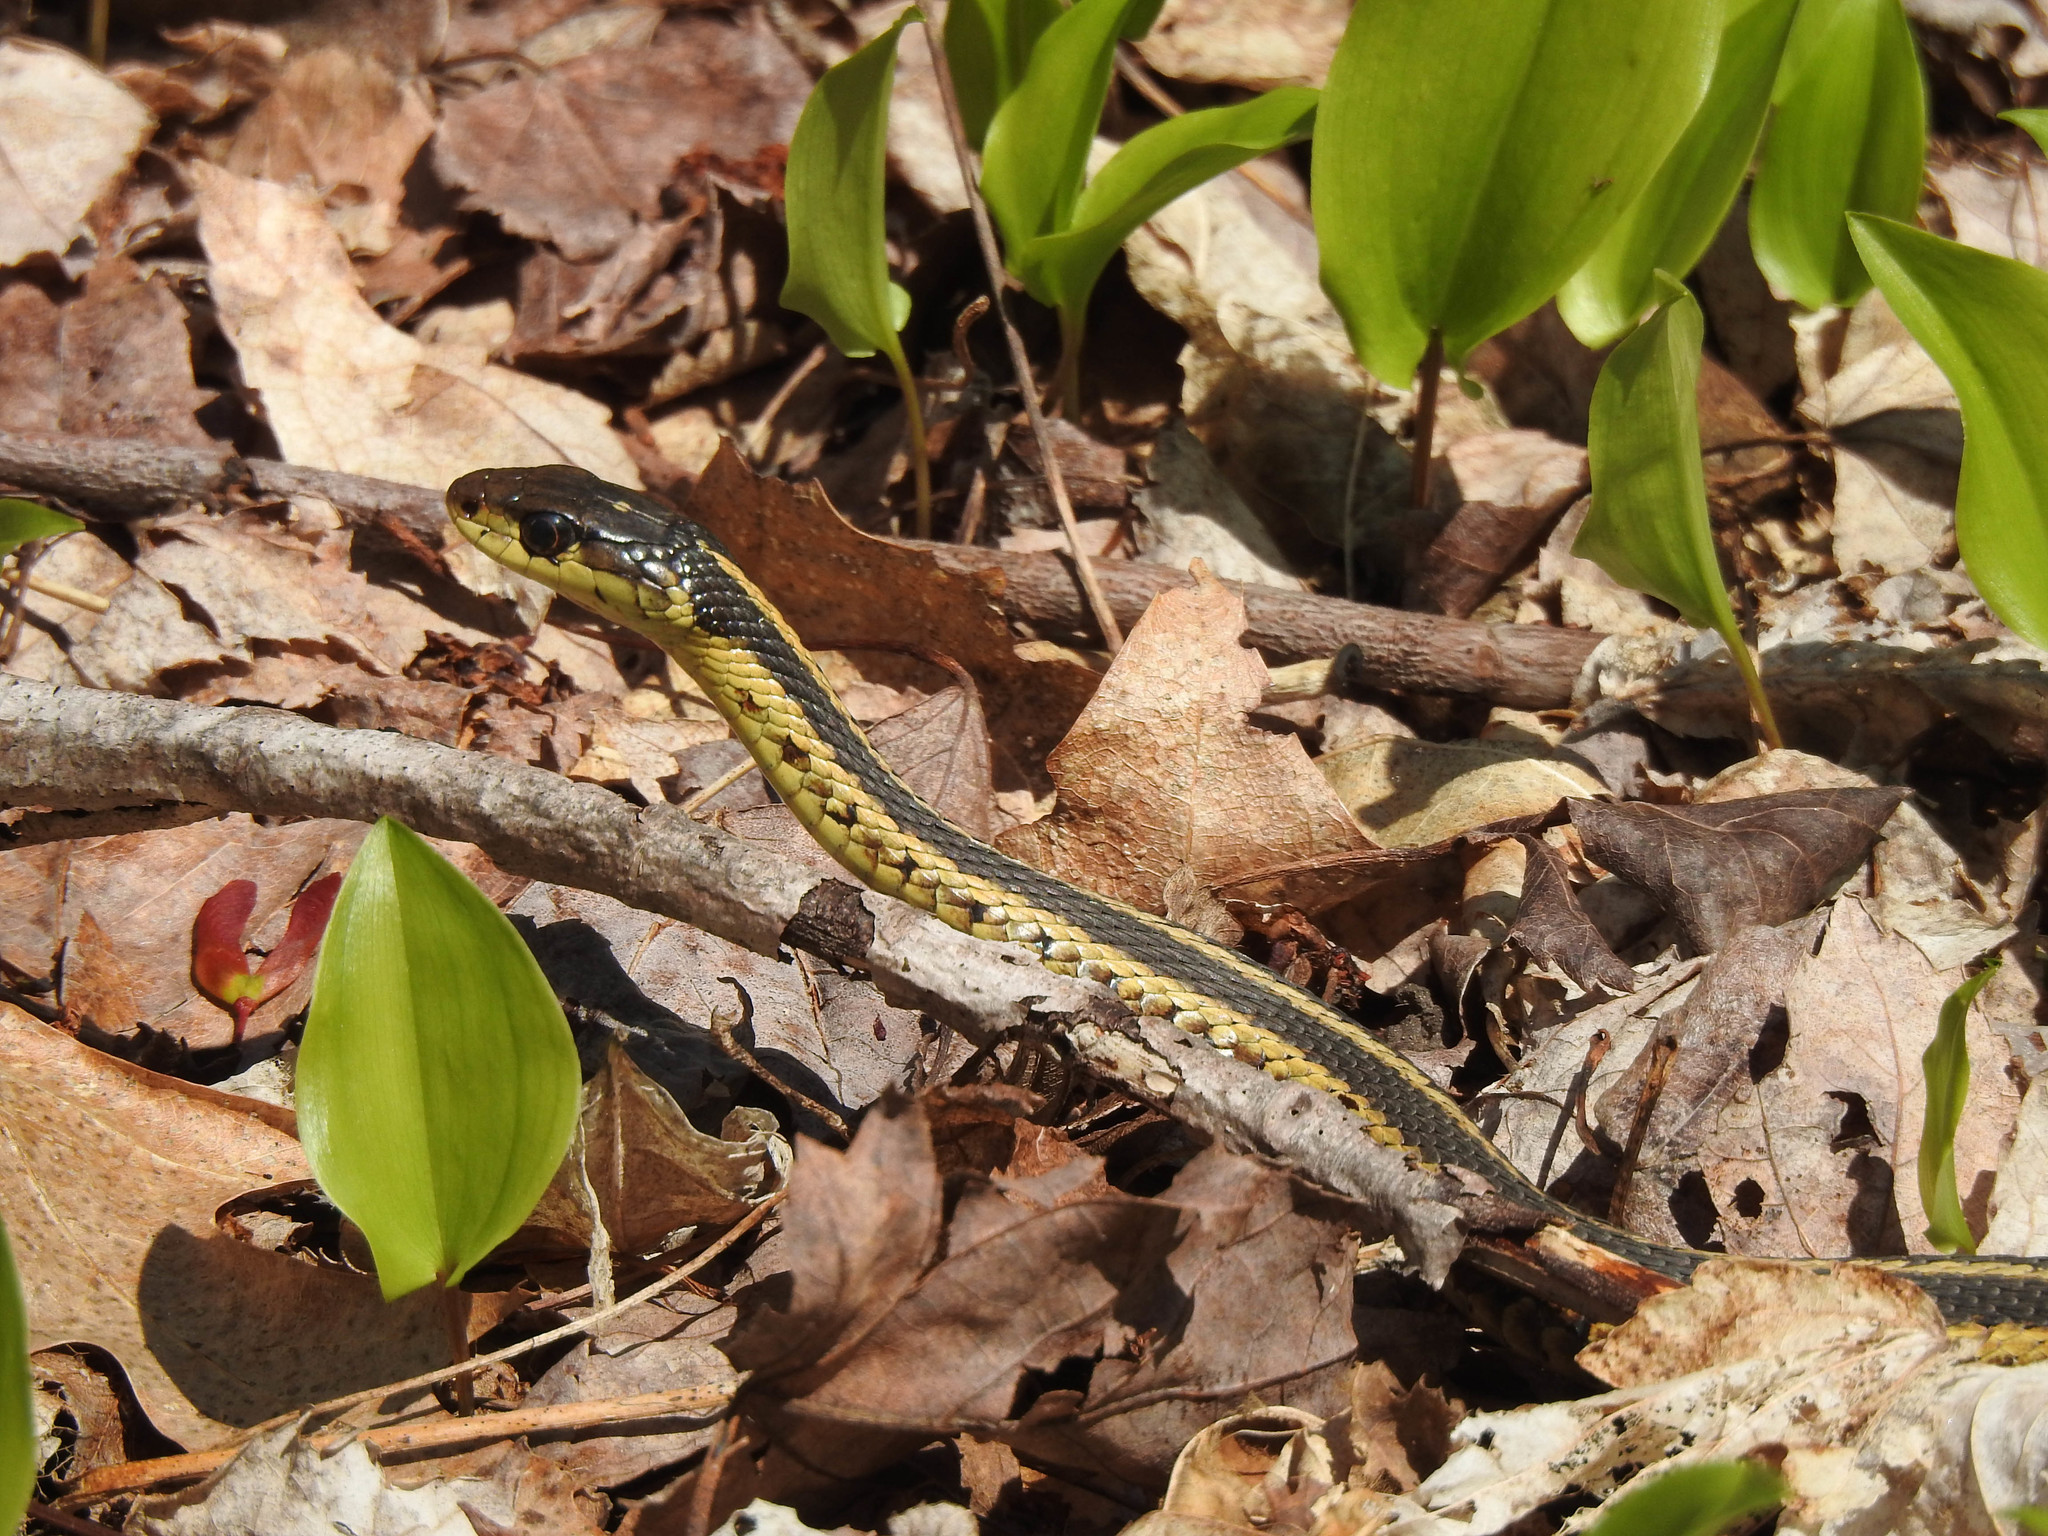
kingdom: Animalia
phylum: Chordata
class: Squamata
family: Colubridae
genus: Thamnophis
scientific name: Thamnophis sirtalis
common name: Common garter snake
